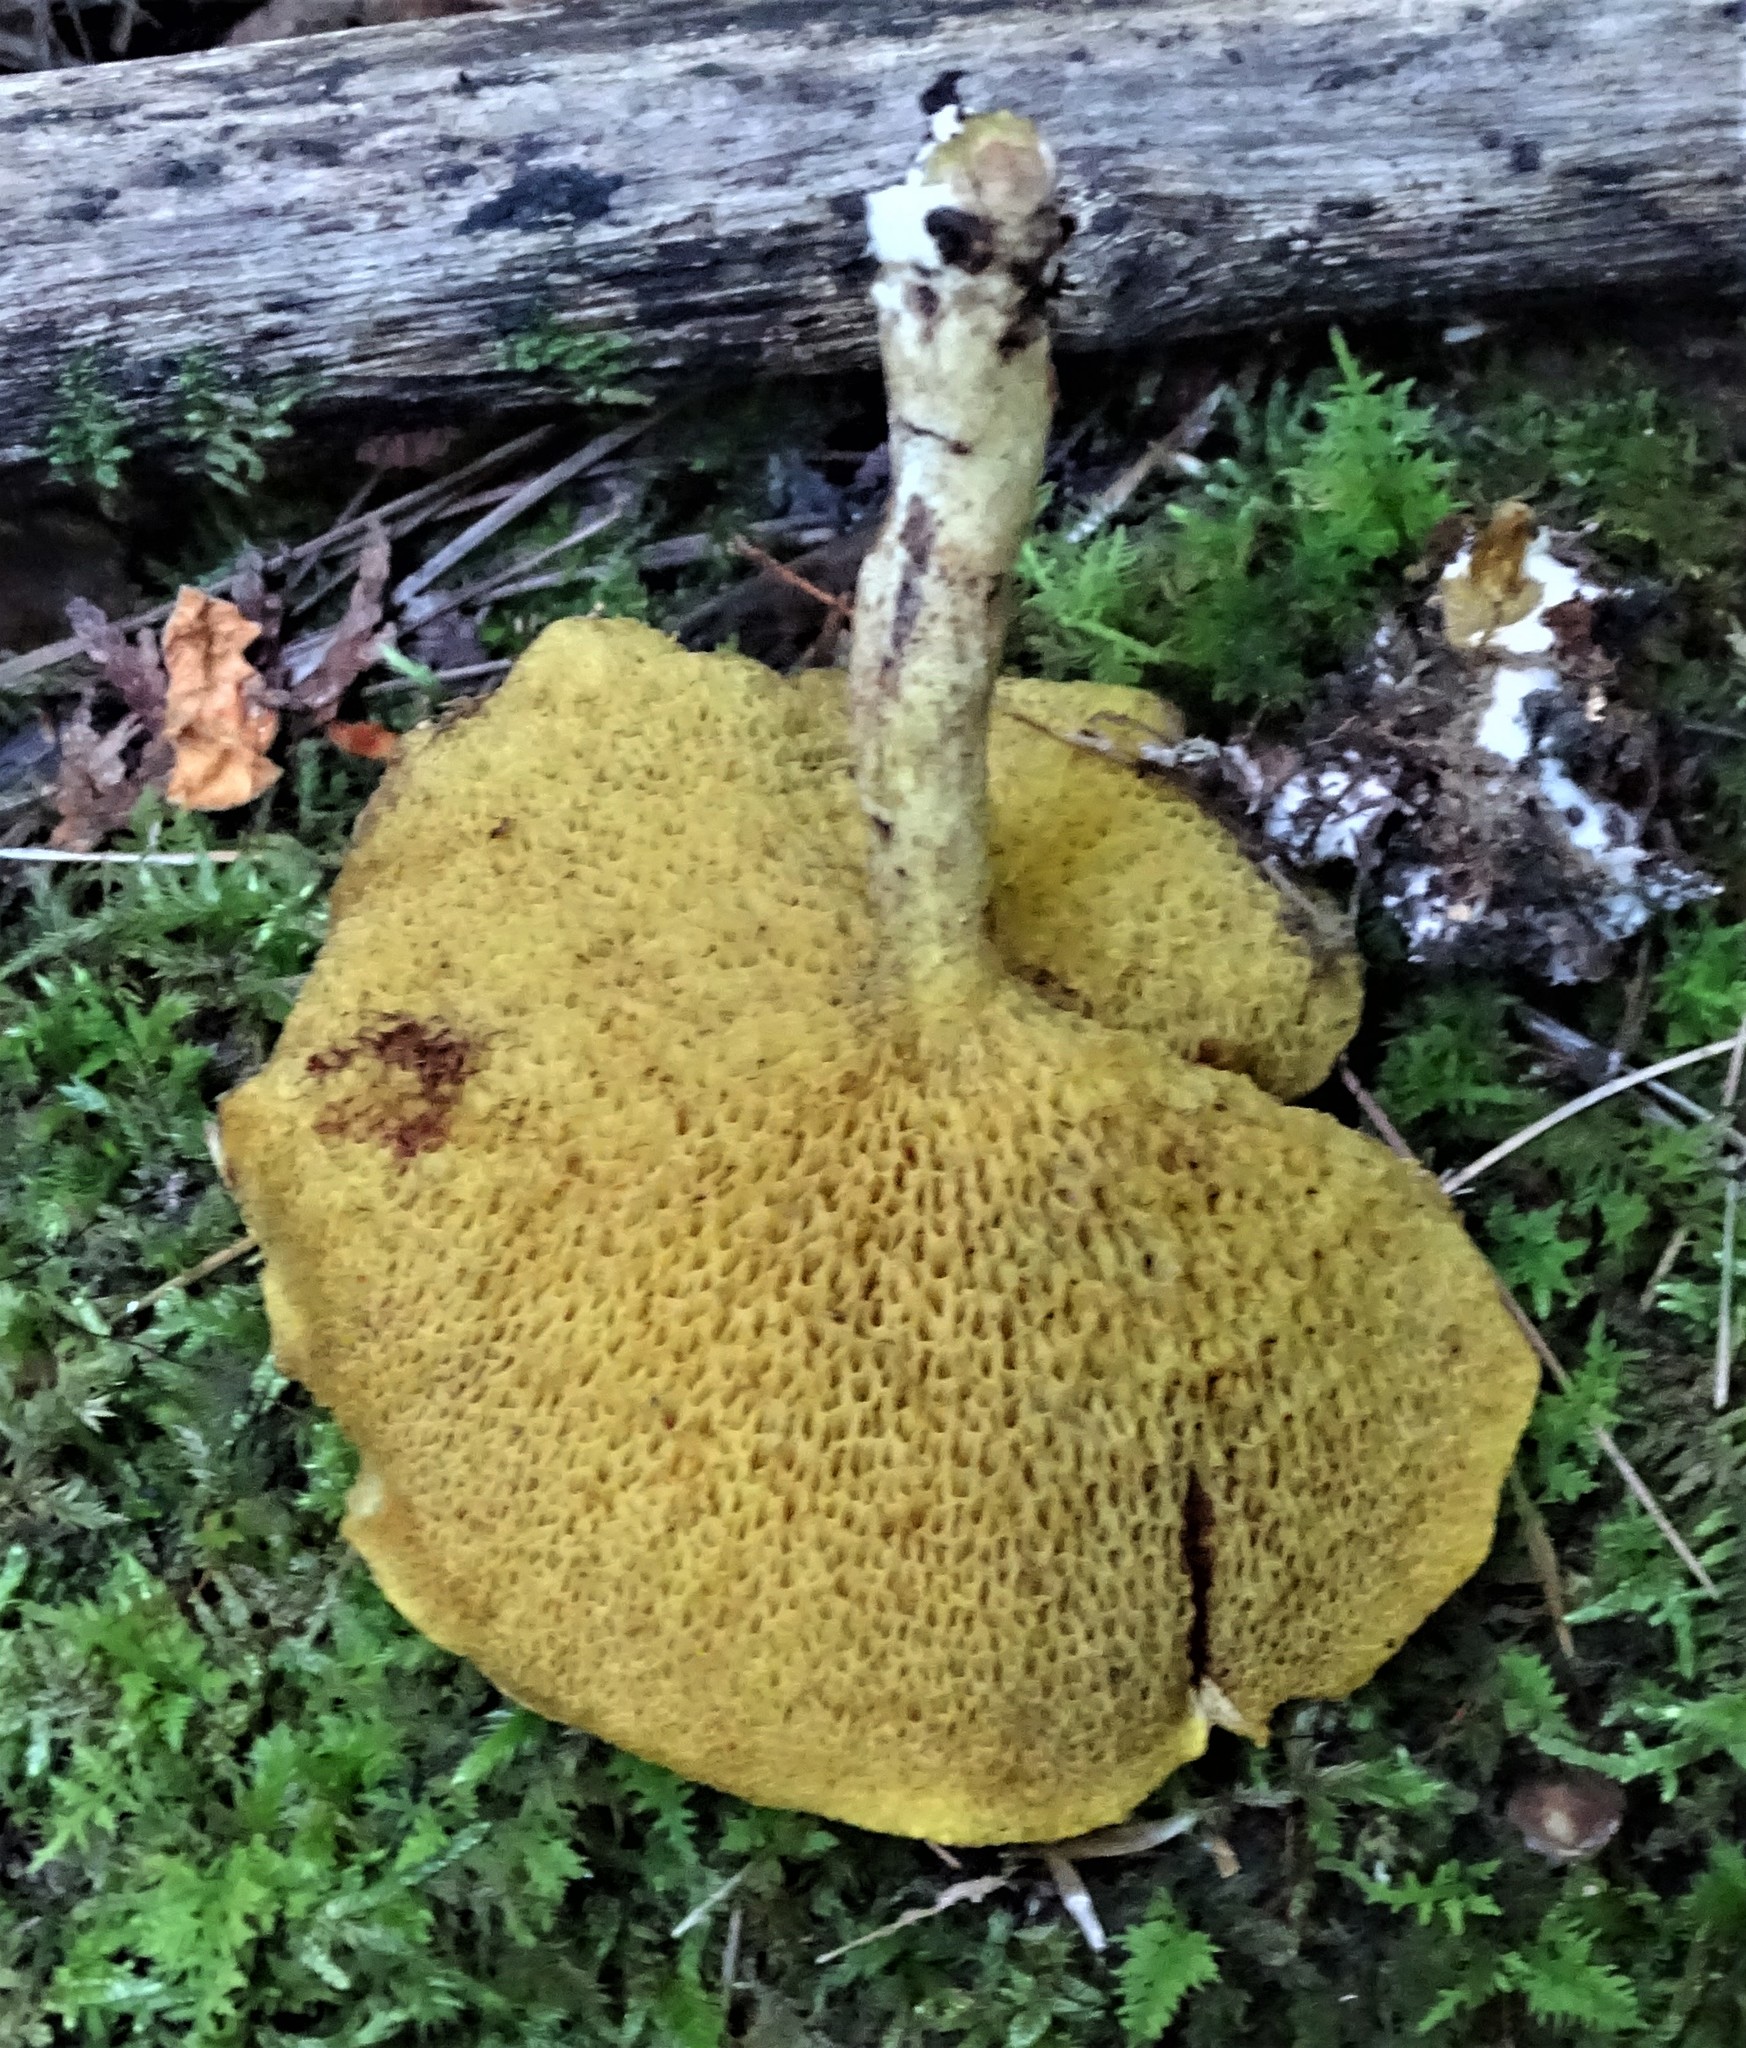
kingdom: Fungi
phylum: Basidiomycota
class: Agaricomycetes
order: Boletales
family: Suillaceae
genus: Suillus
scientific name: Suillus americanus
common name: Chicken fat mushroom
